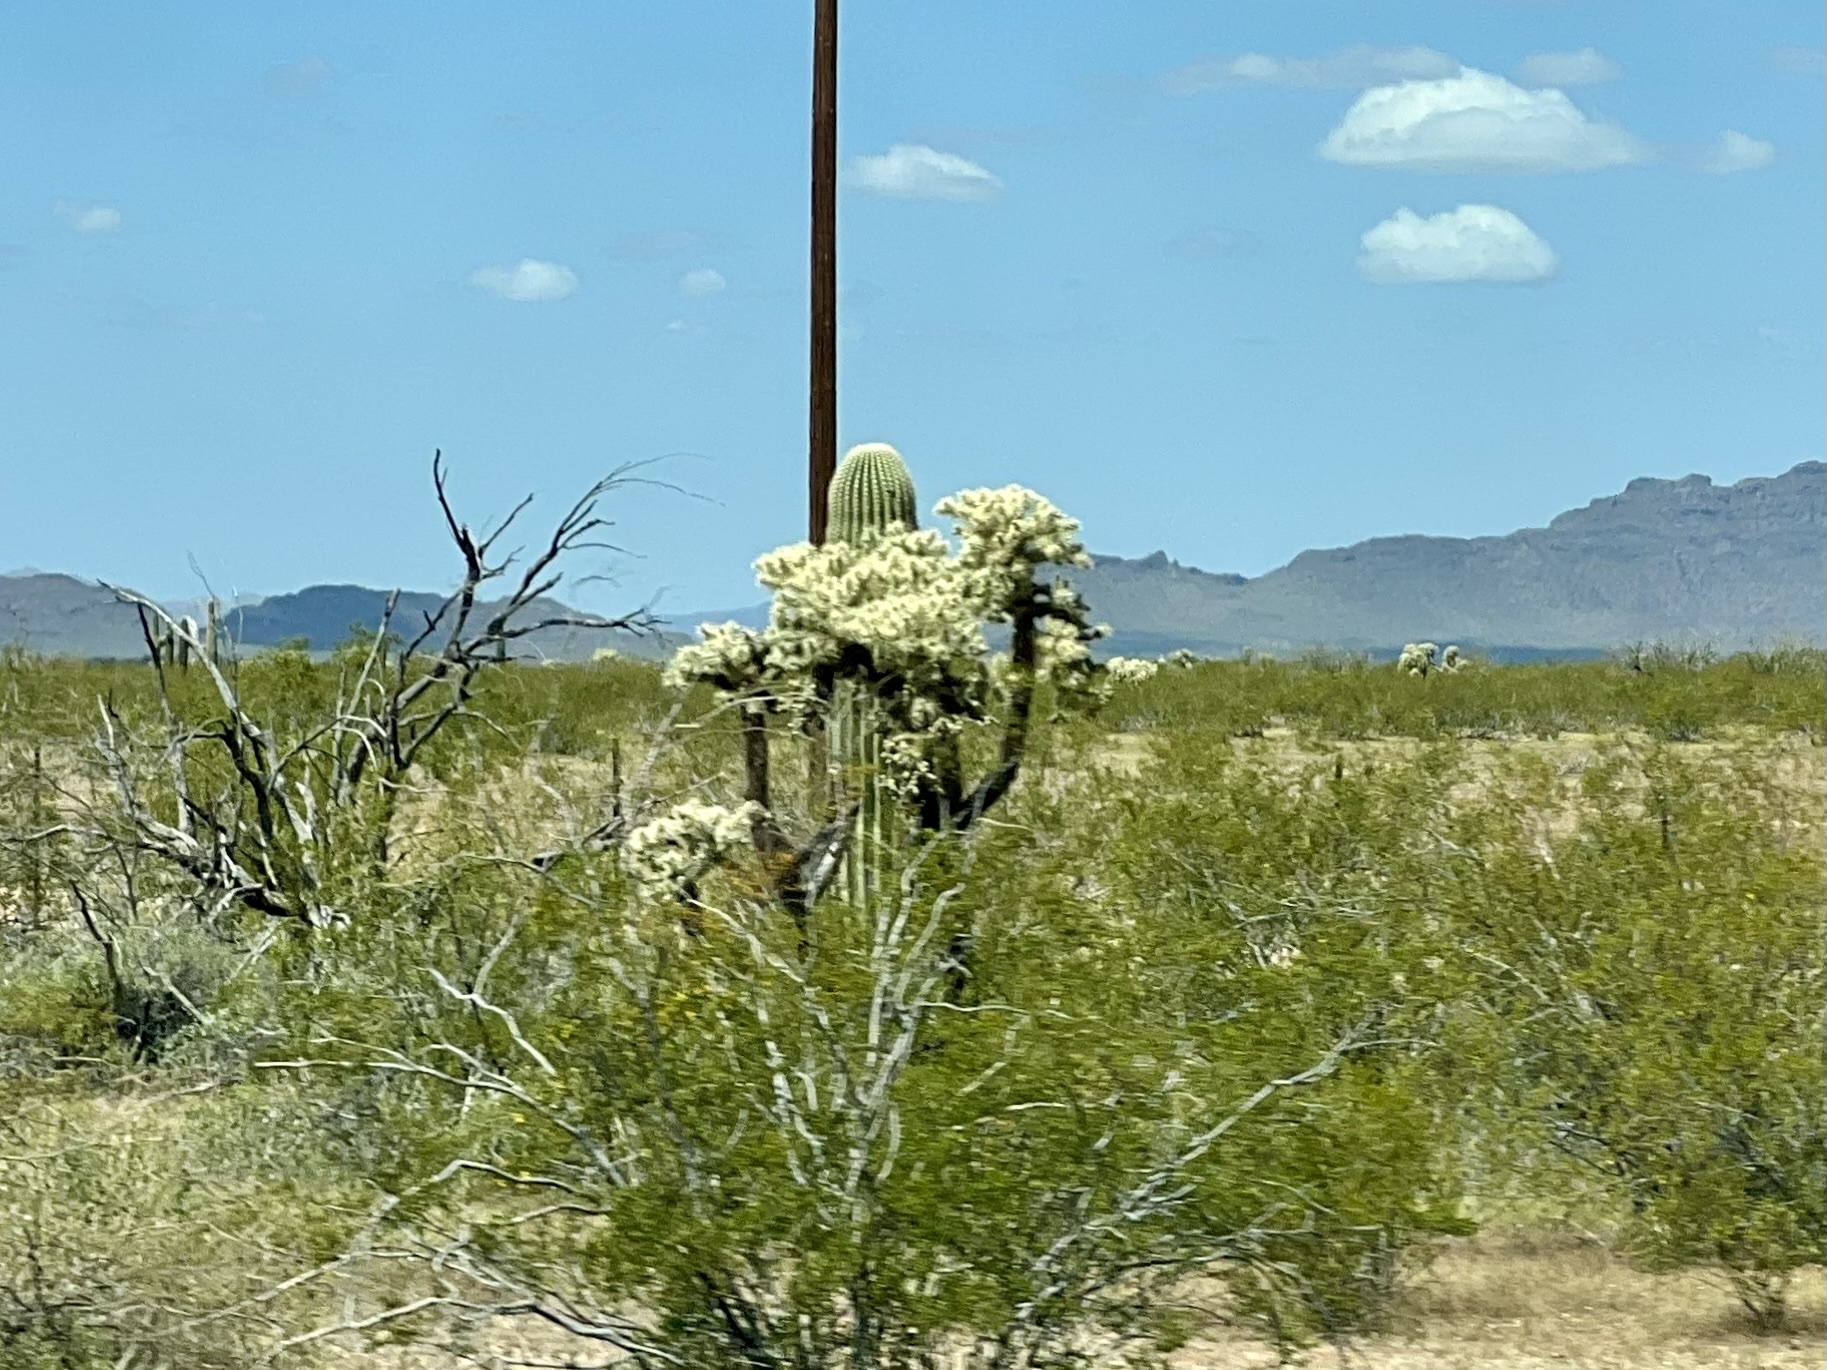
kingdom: Plantae
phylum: Tracheophyta
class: Magnoliopsida
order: Caryophyllales
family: Cactaceae
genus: Cylindropuntia
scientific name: Cylindropuntia fulgida
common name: Jumping cholla
